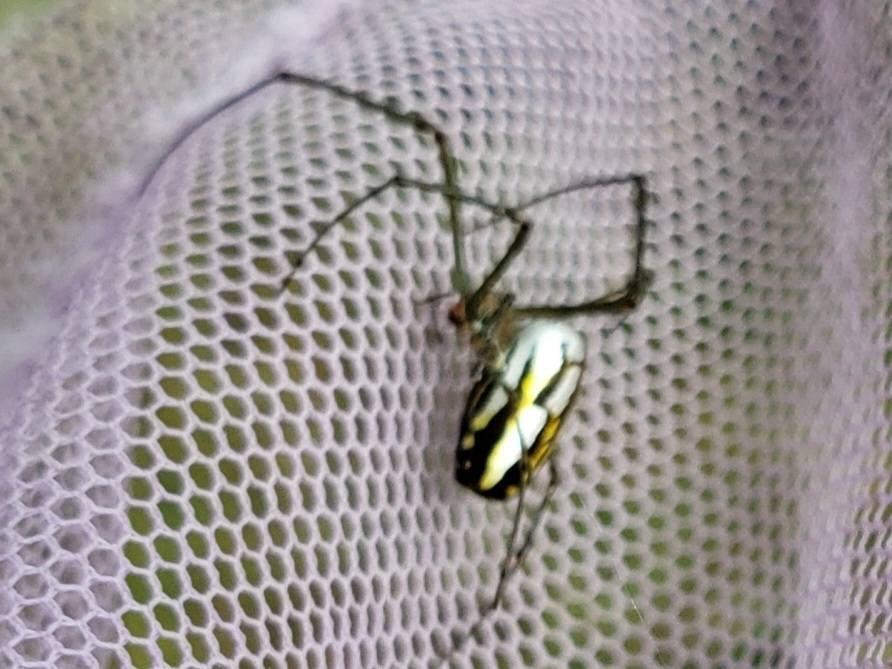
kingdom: Animalia
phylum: Arthropoda
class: Arachnida
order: Araneae
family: Tetragnathidae
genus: Leucauge
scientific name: Leucauge argyra
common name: Longjawed orb weavers
